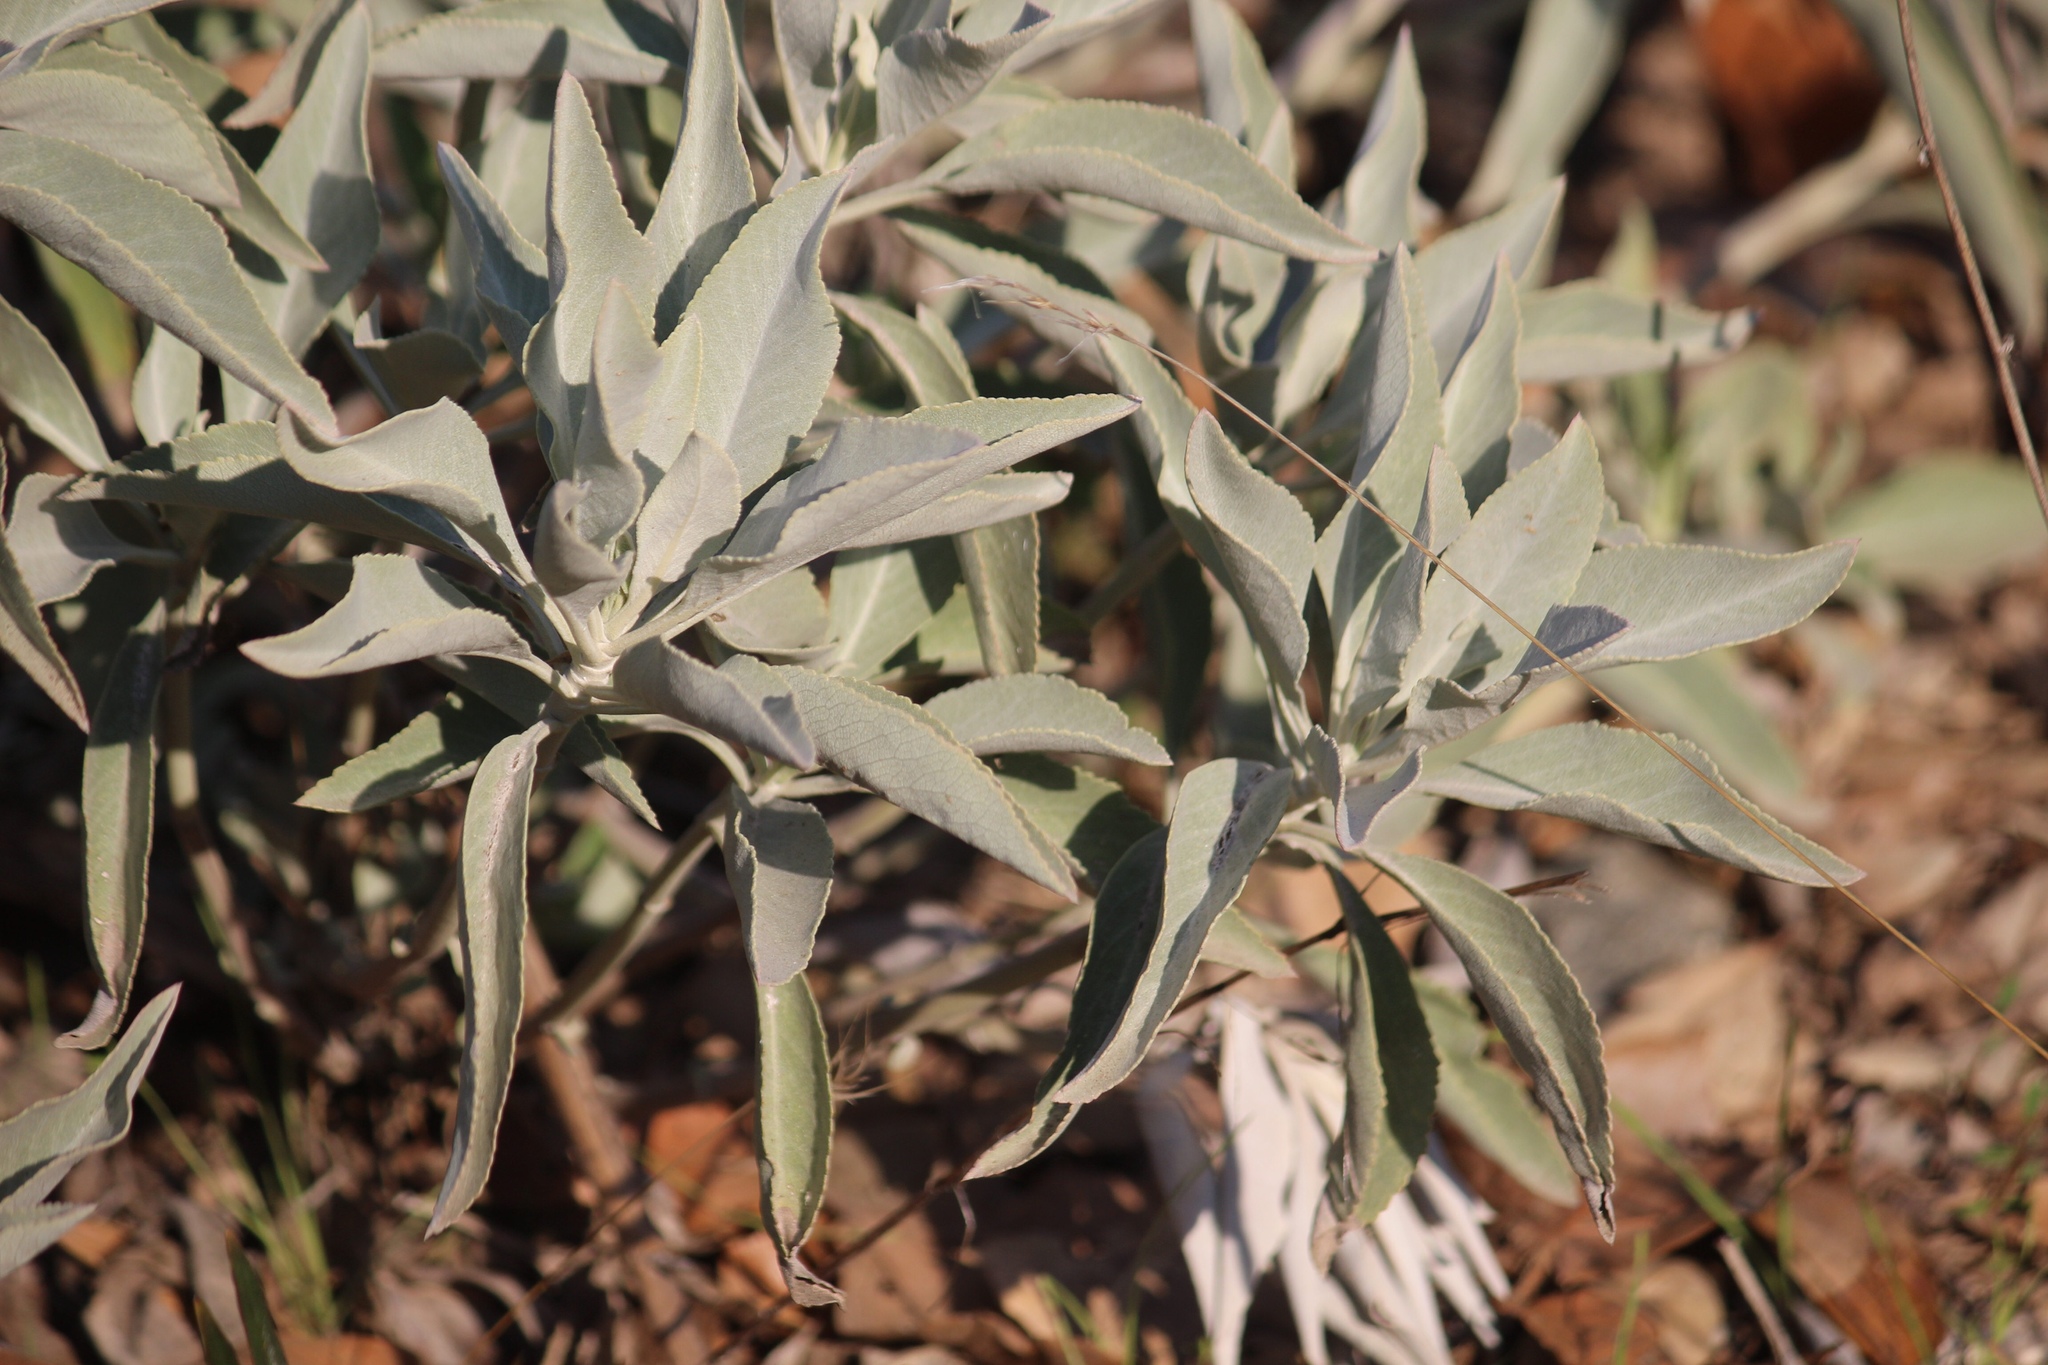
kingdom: Plantae
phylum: Tracheophyta
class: Magnoliopsida
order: Lamiales
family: Lamiaceae
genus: Salvia
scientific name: Salvia apiana
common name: White sage
